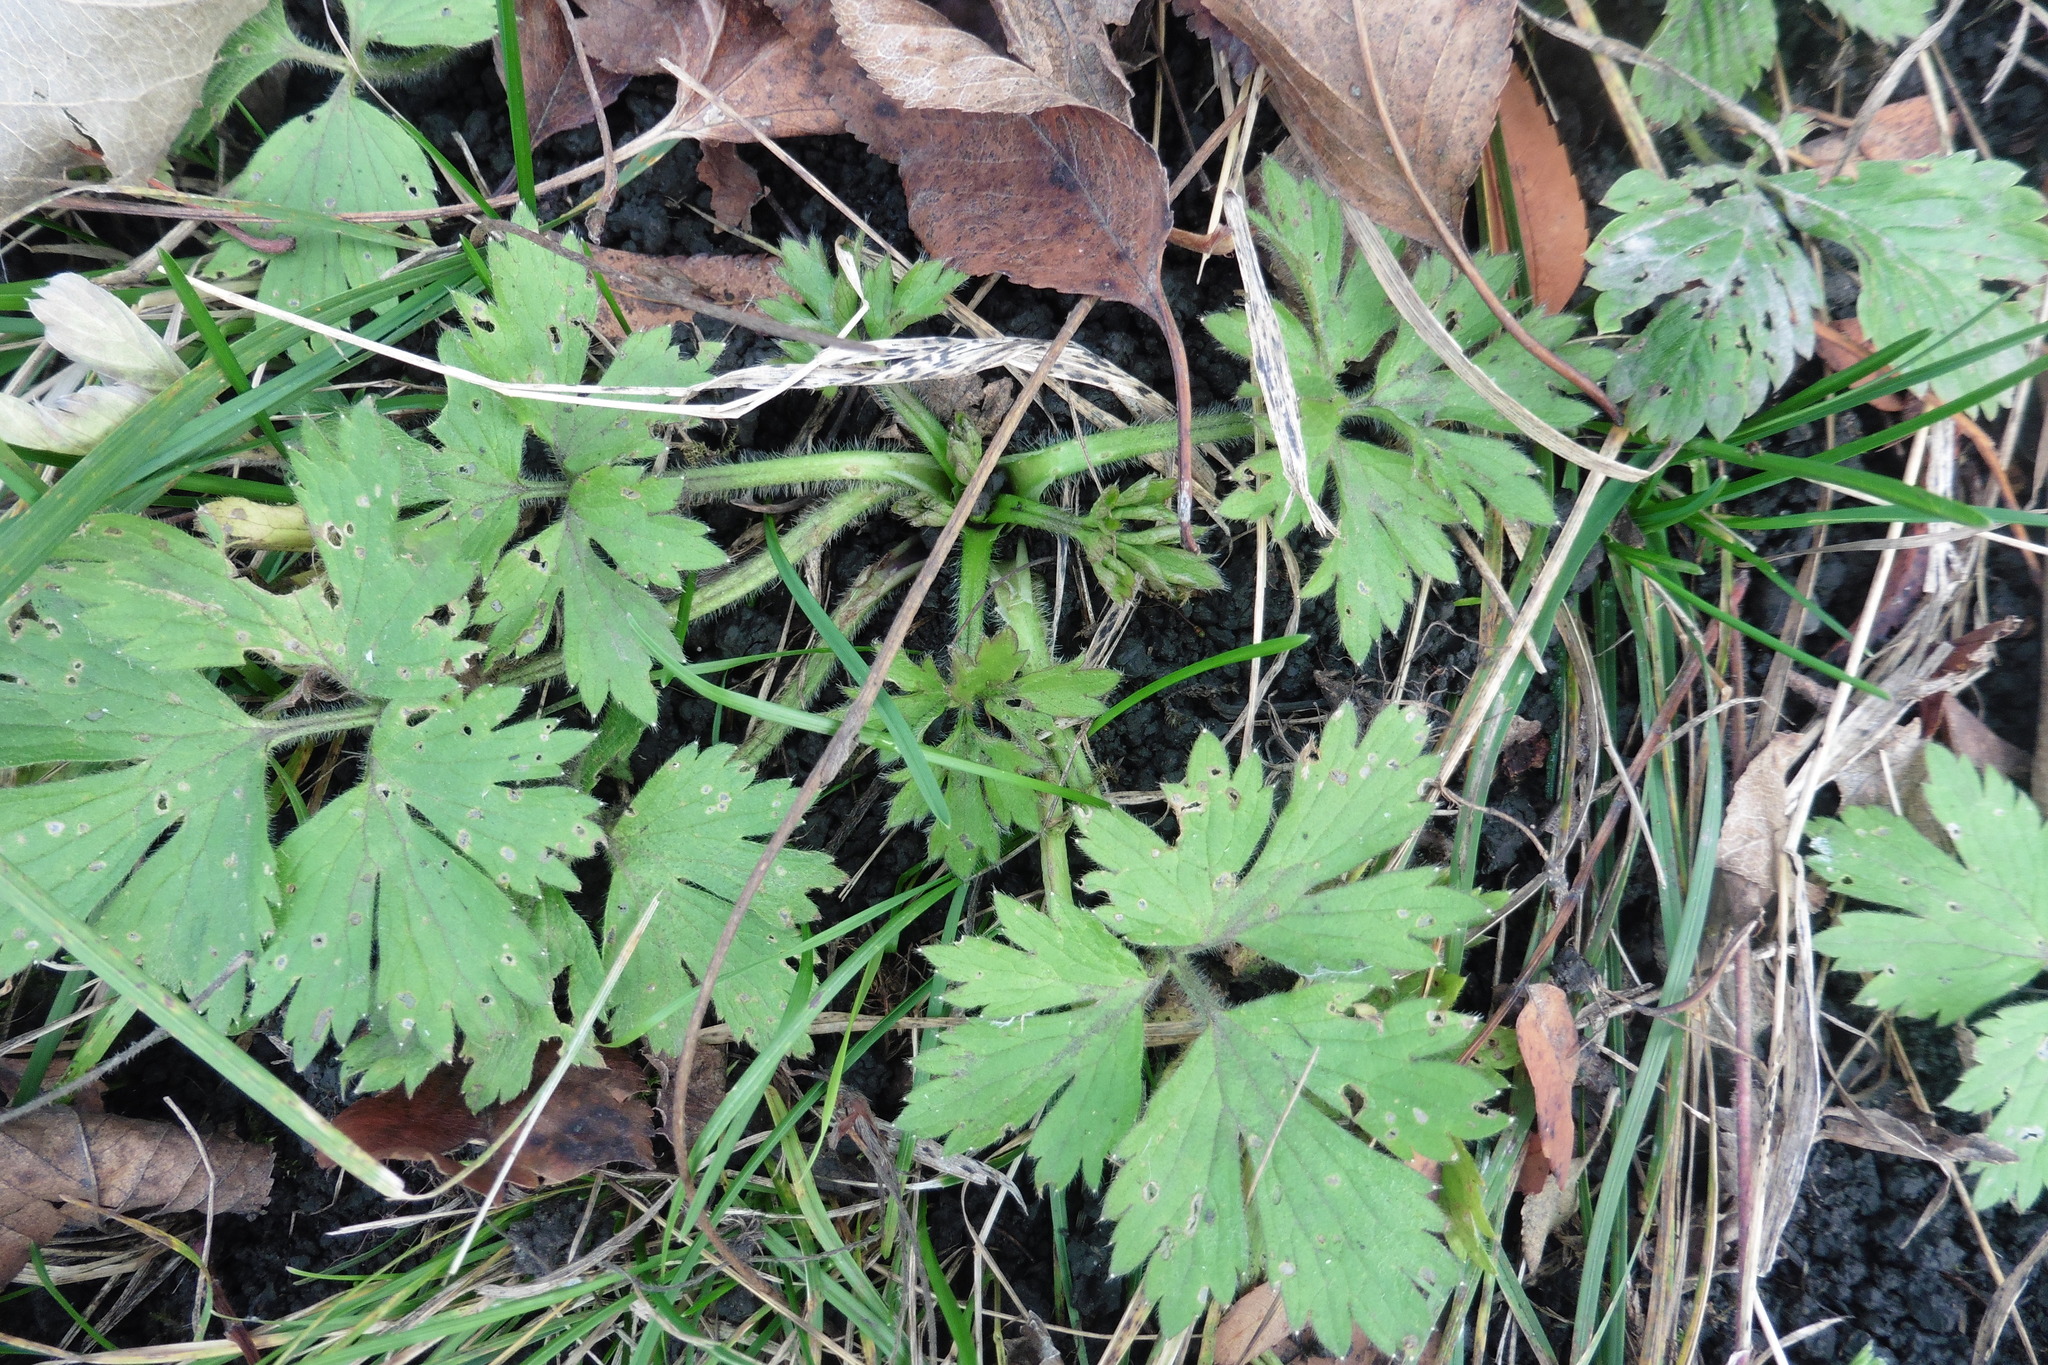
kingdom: Plantae
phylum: Tracheophyta
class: Magnoliopsida
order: Ranunculales
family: Ranunculaceae
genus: Ranunculus
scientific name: Ranunculus repens
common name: Creeping buttercup
